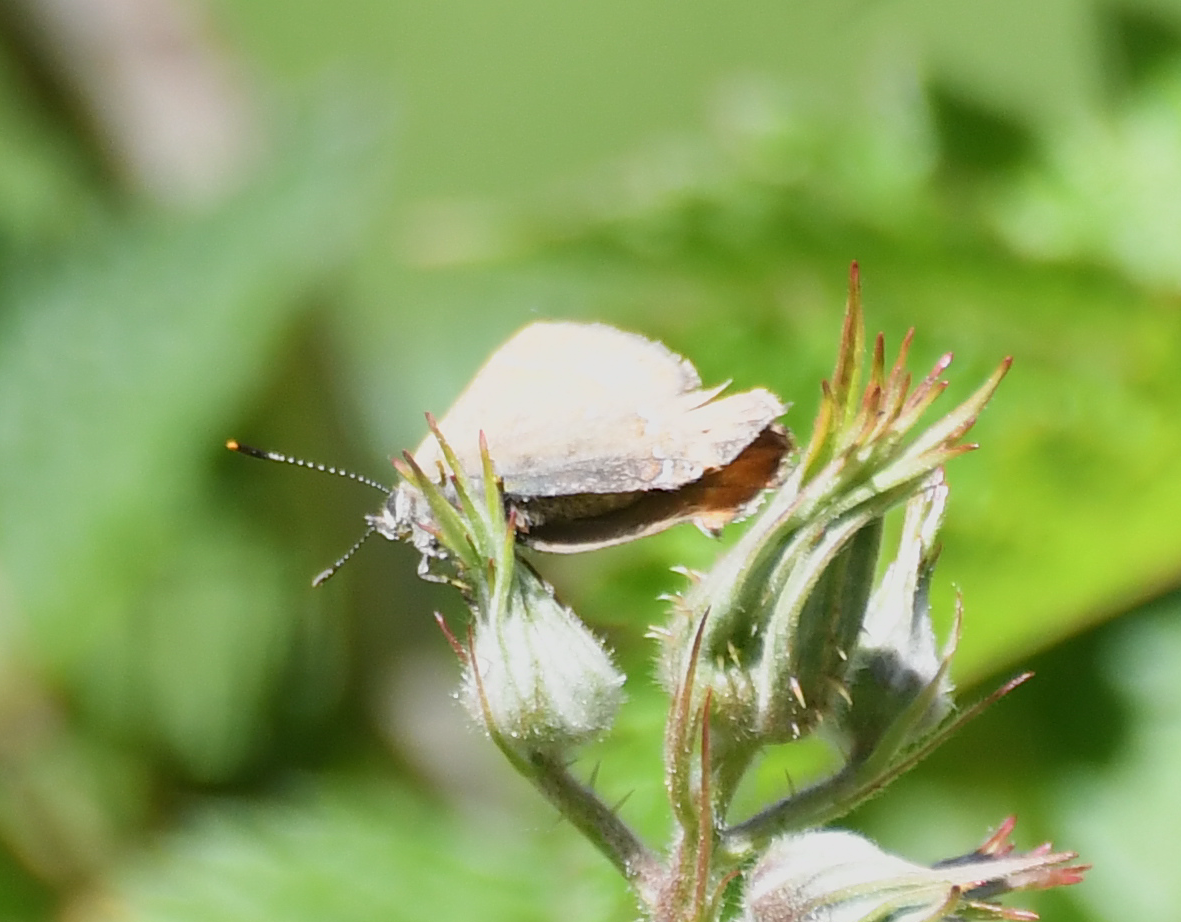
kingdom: Animalia
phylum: Arthropoda
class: Insecta
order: Lepidoptera
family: Lycaenidae
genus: Incisalia
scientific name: Incisalia irioides
